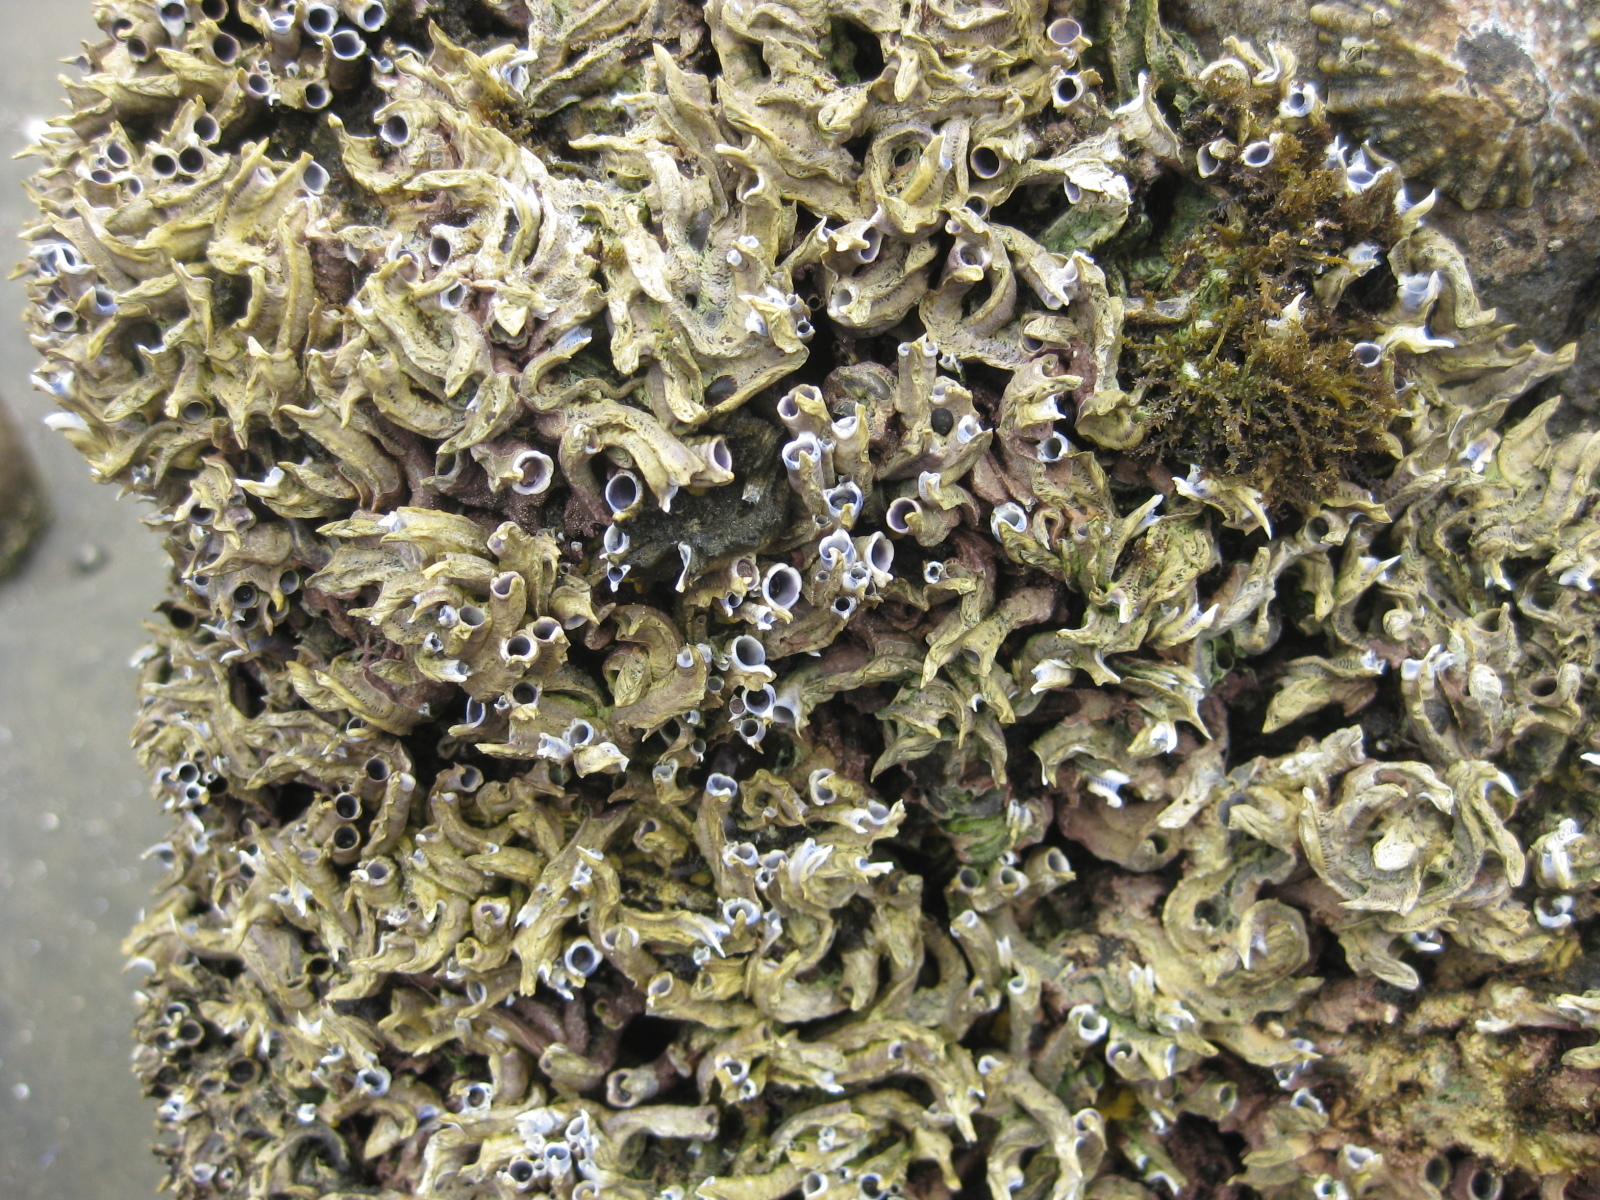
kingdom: Animalia
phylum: Annelida
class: Polychaeta
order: Sabellida
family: Serpulidae
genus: Spirobranchus
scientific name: Spirobranchus cariniferus
